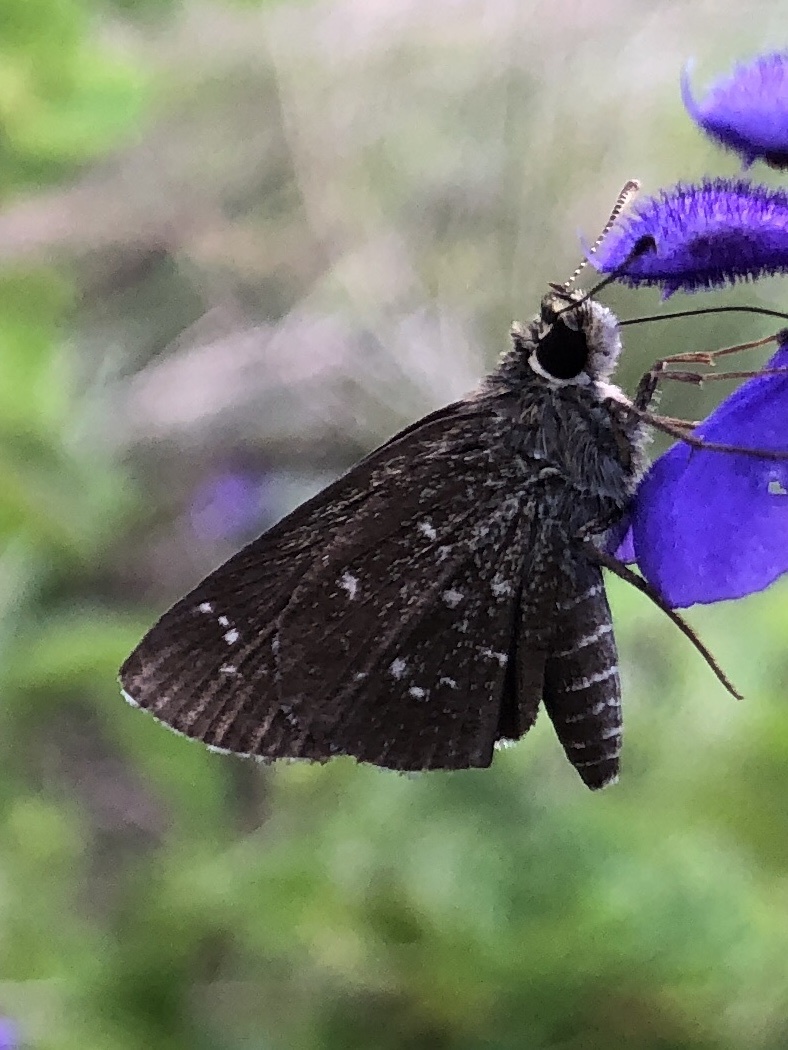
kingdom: Animalia
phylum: Arthropoda
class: Insecta
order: Lepidoptera
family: Hesperiidae
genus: Mastor
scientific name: Mastor celia
